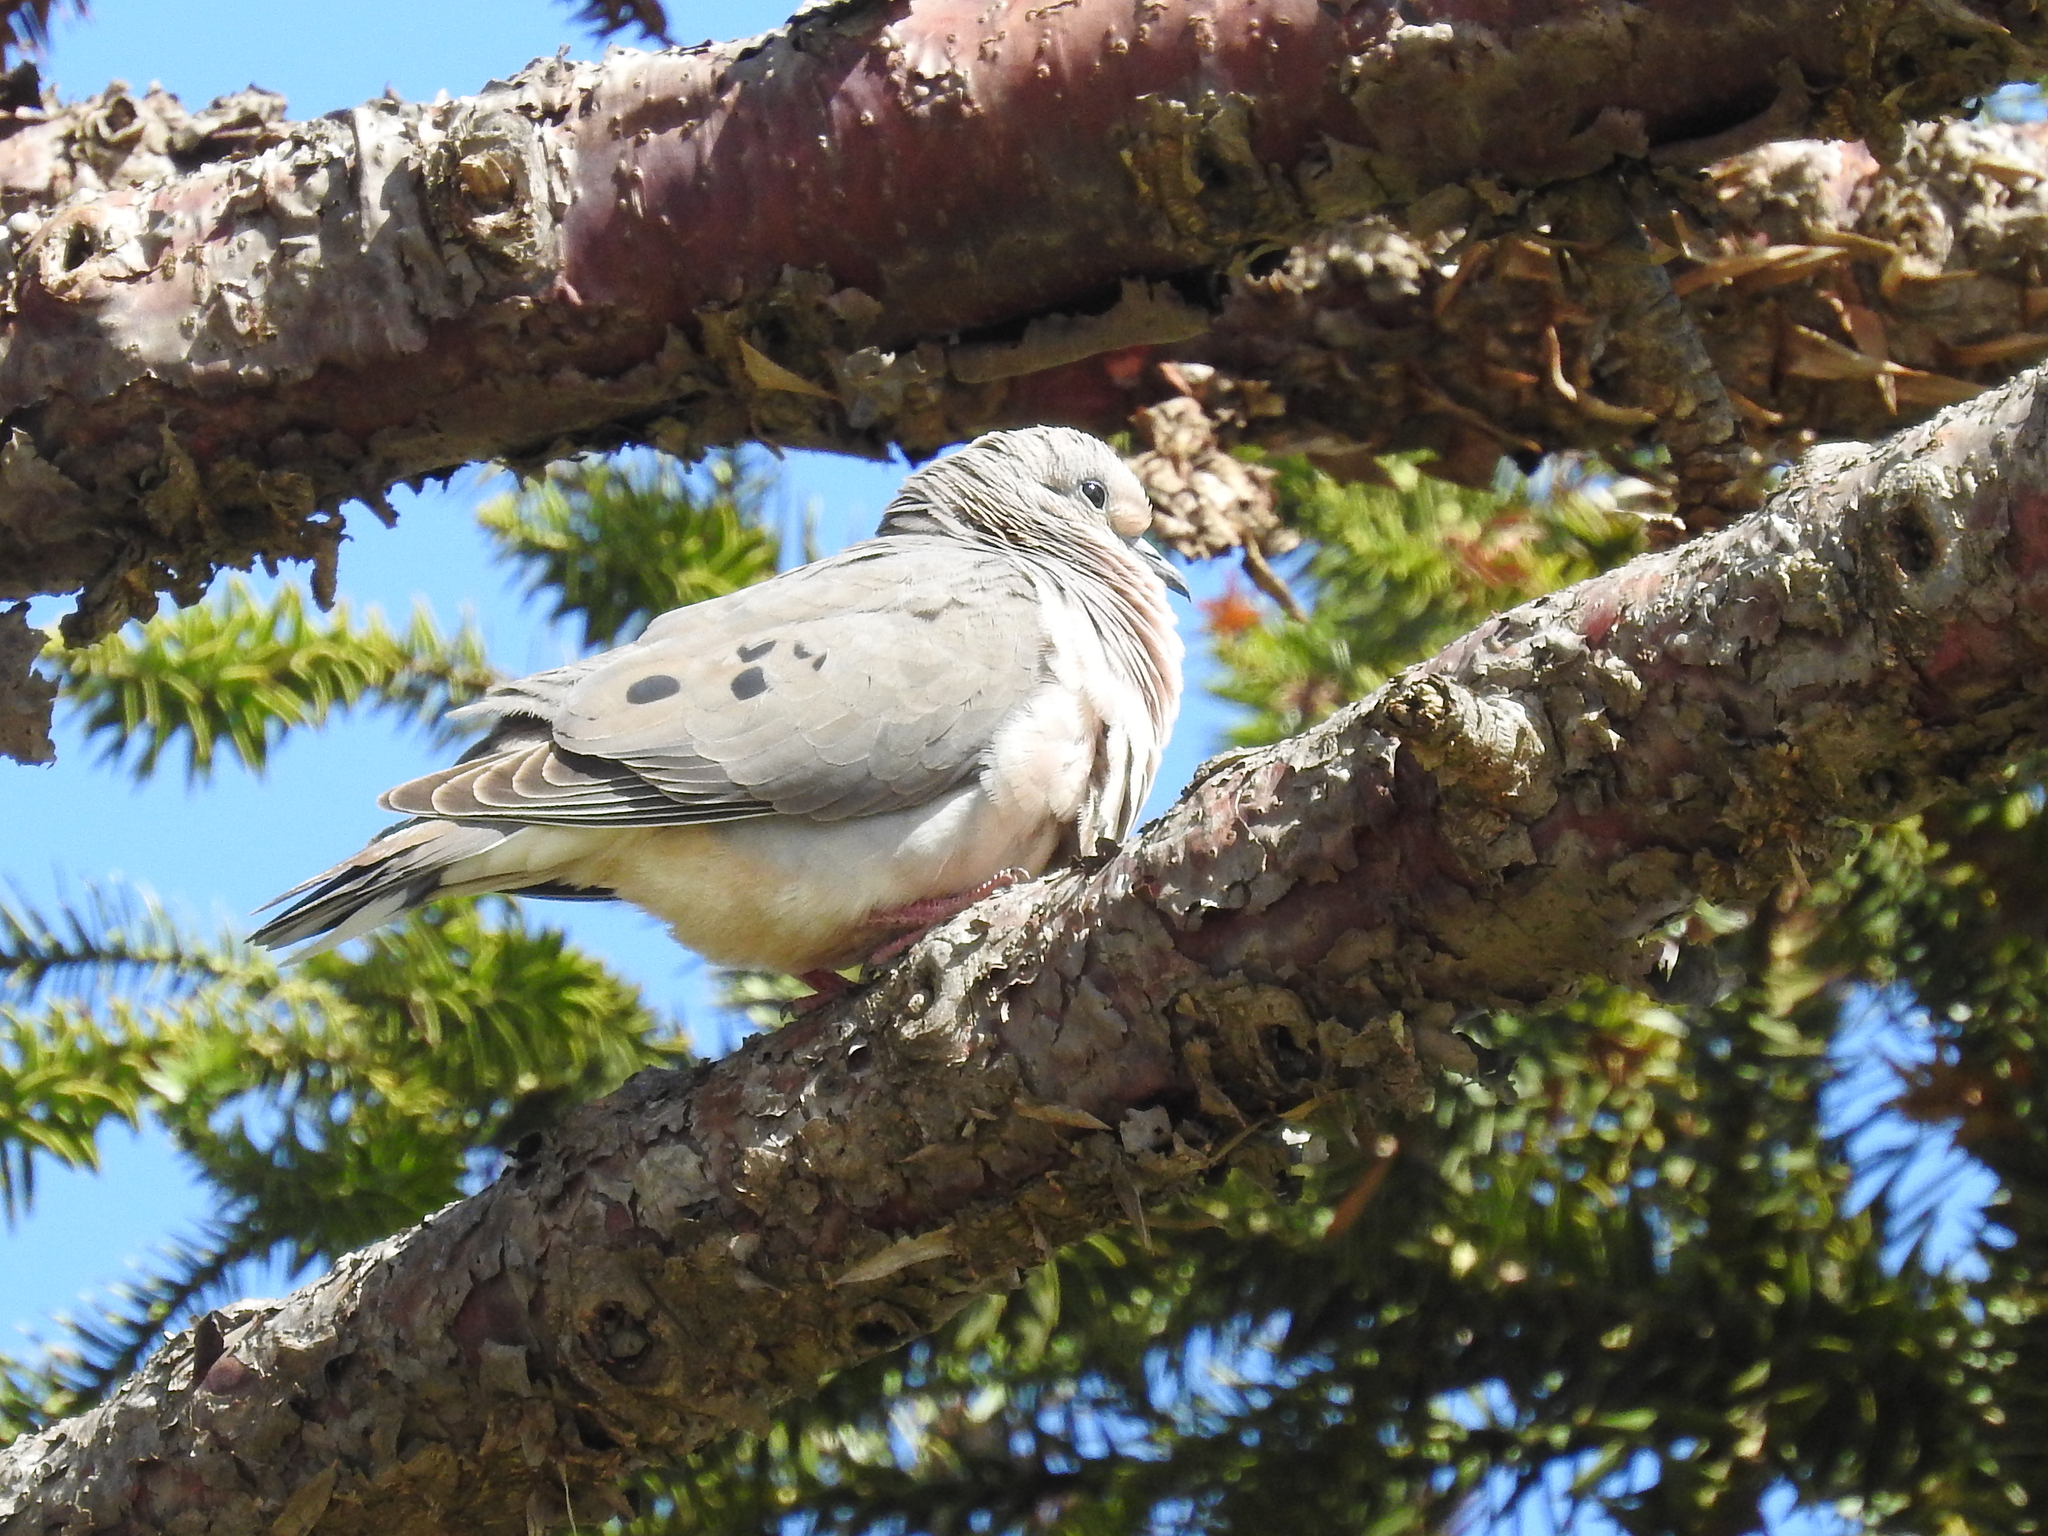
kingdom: Animalia
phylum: Chordata
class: Aves
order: Columbiformes
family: Columbidae
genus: Zenaida
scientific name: Zenaida auriculata
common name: Eared dove
